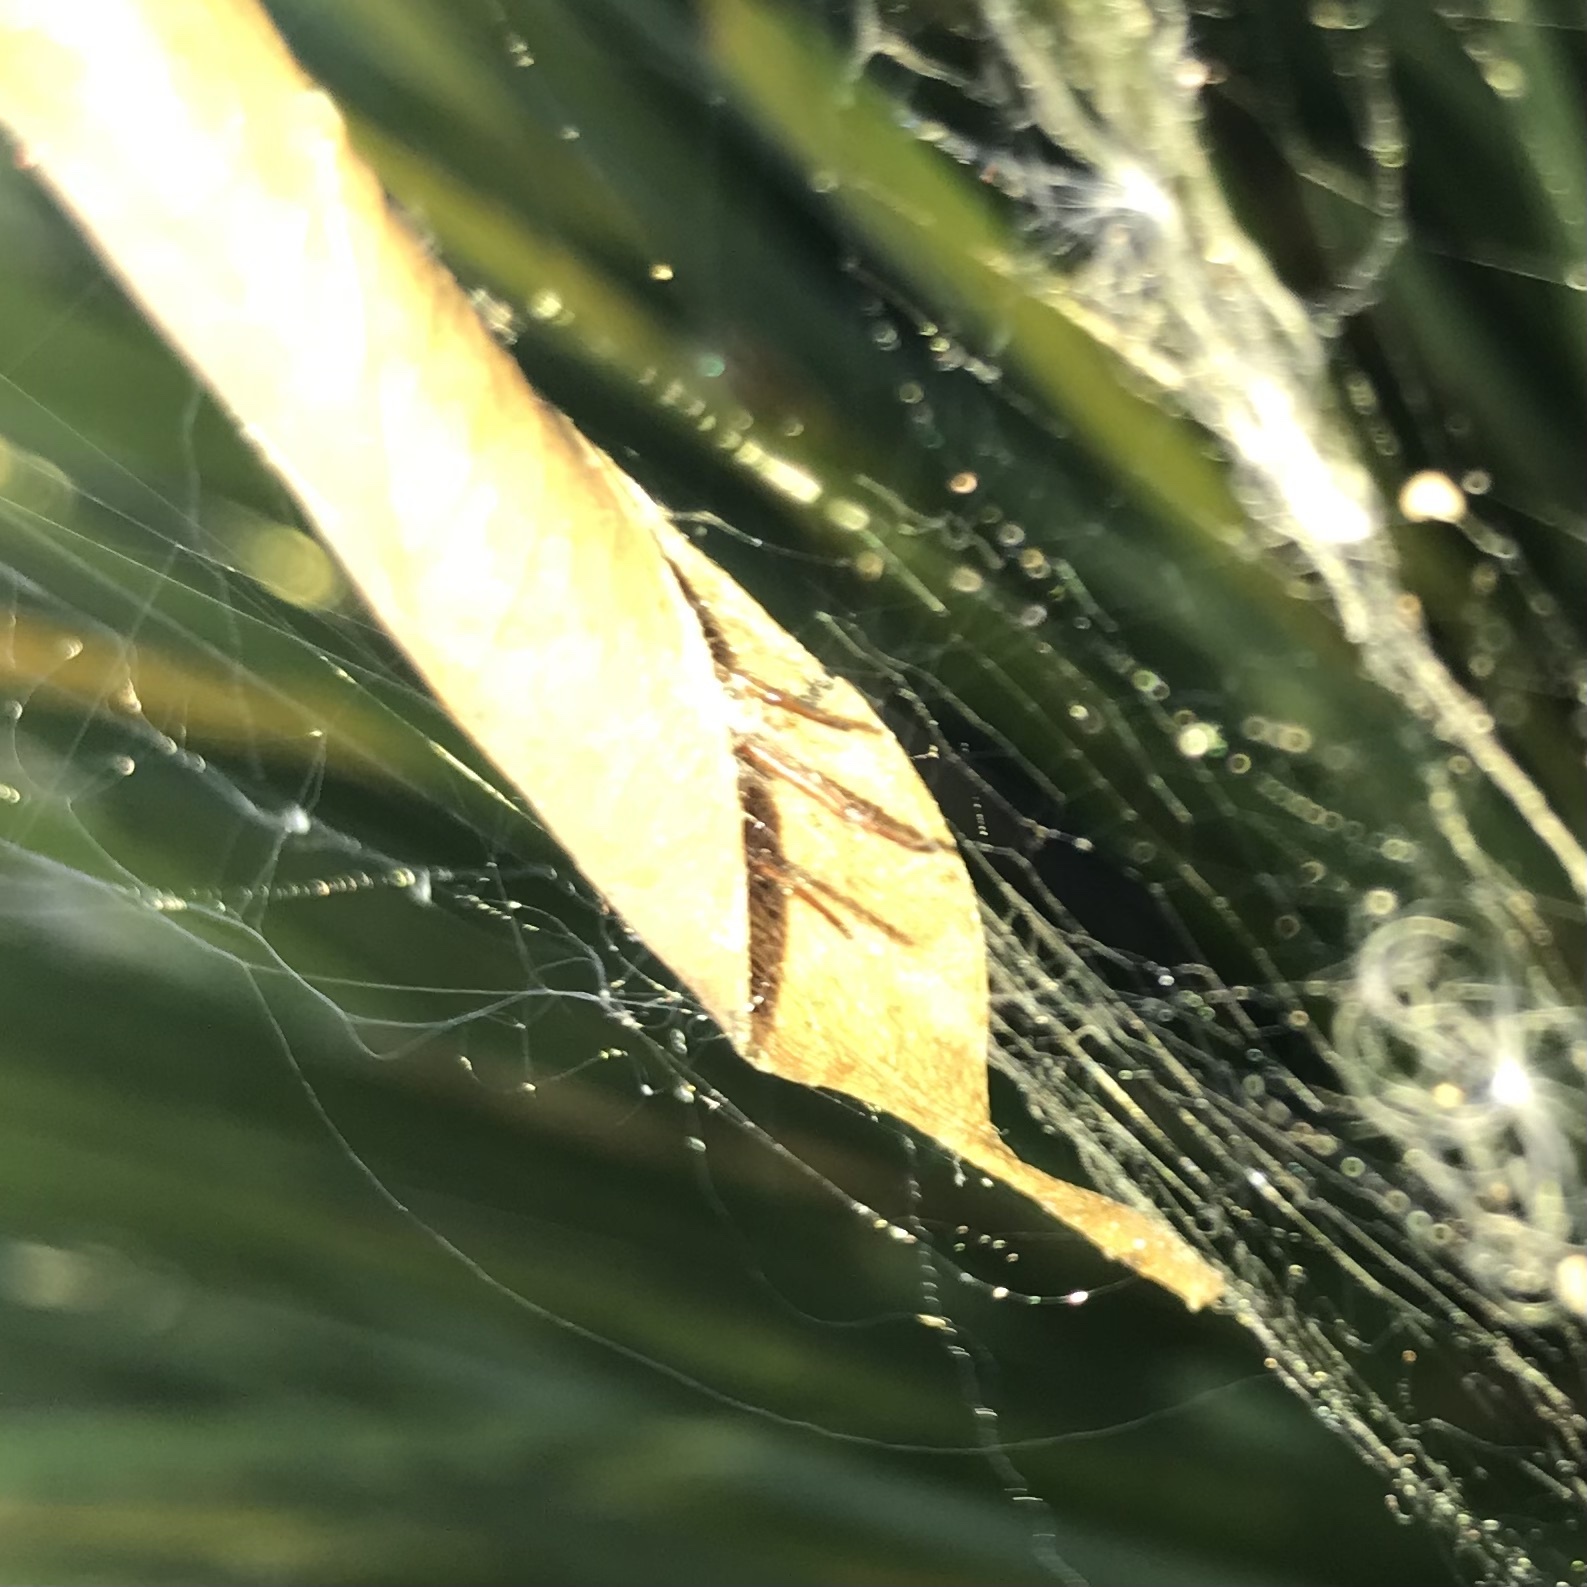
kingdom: Animalia
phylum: Arthropoda
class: Arachnida
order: Araneae
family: Araneidae
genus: Phonognatha
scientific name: Phonognatha graeffei
